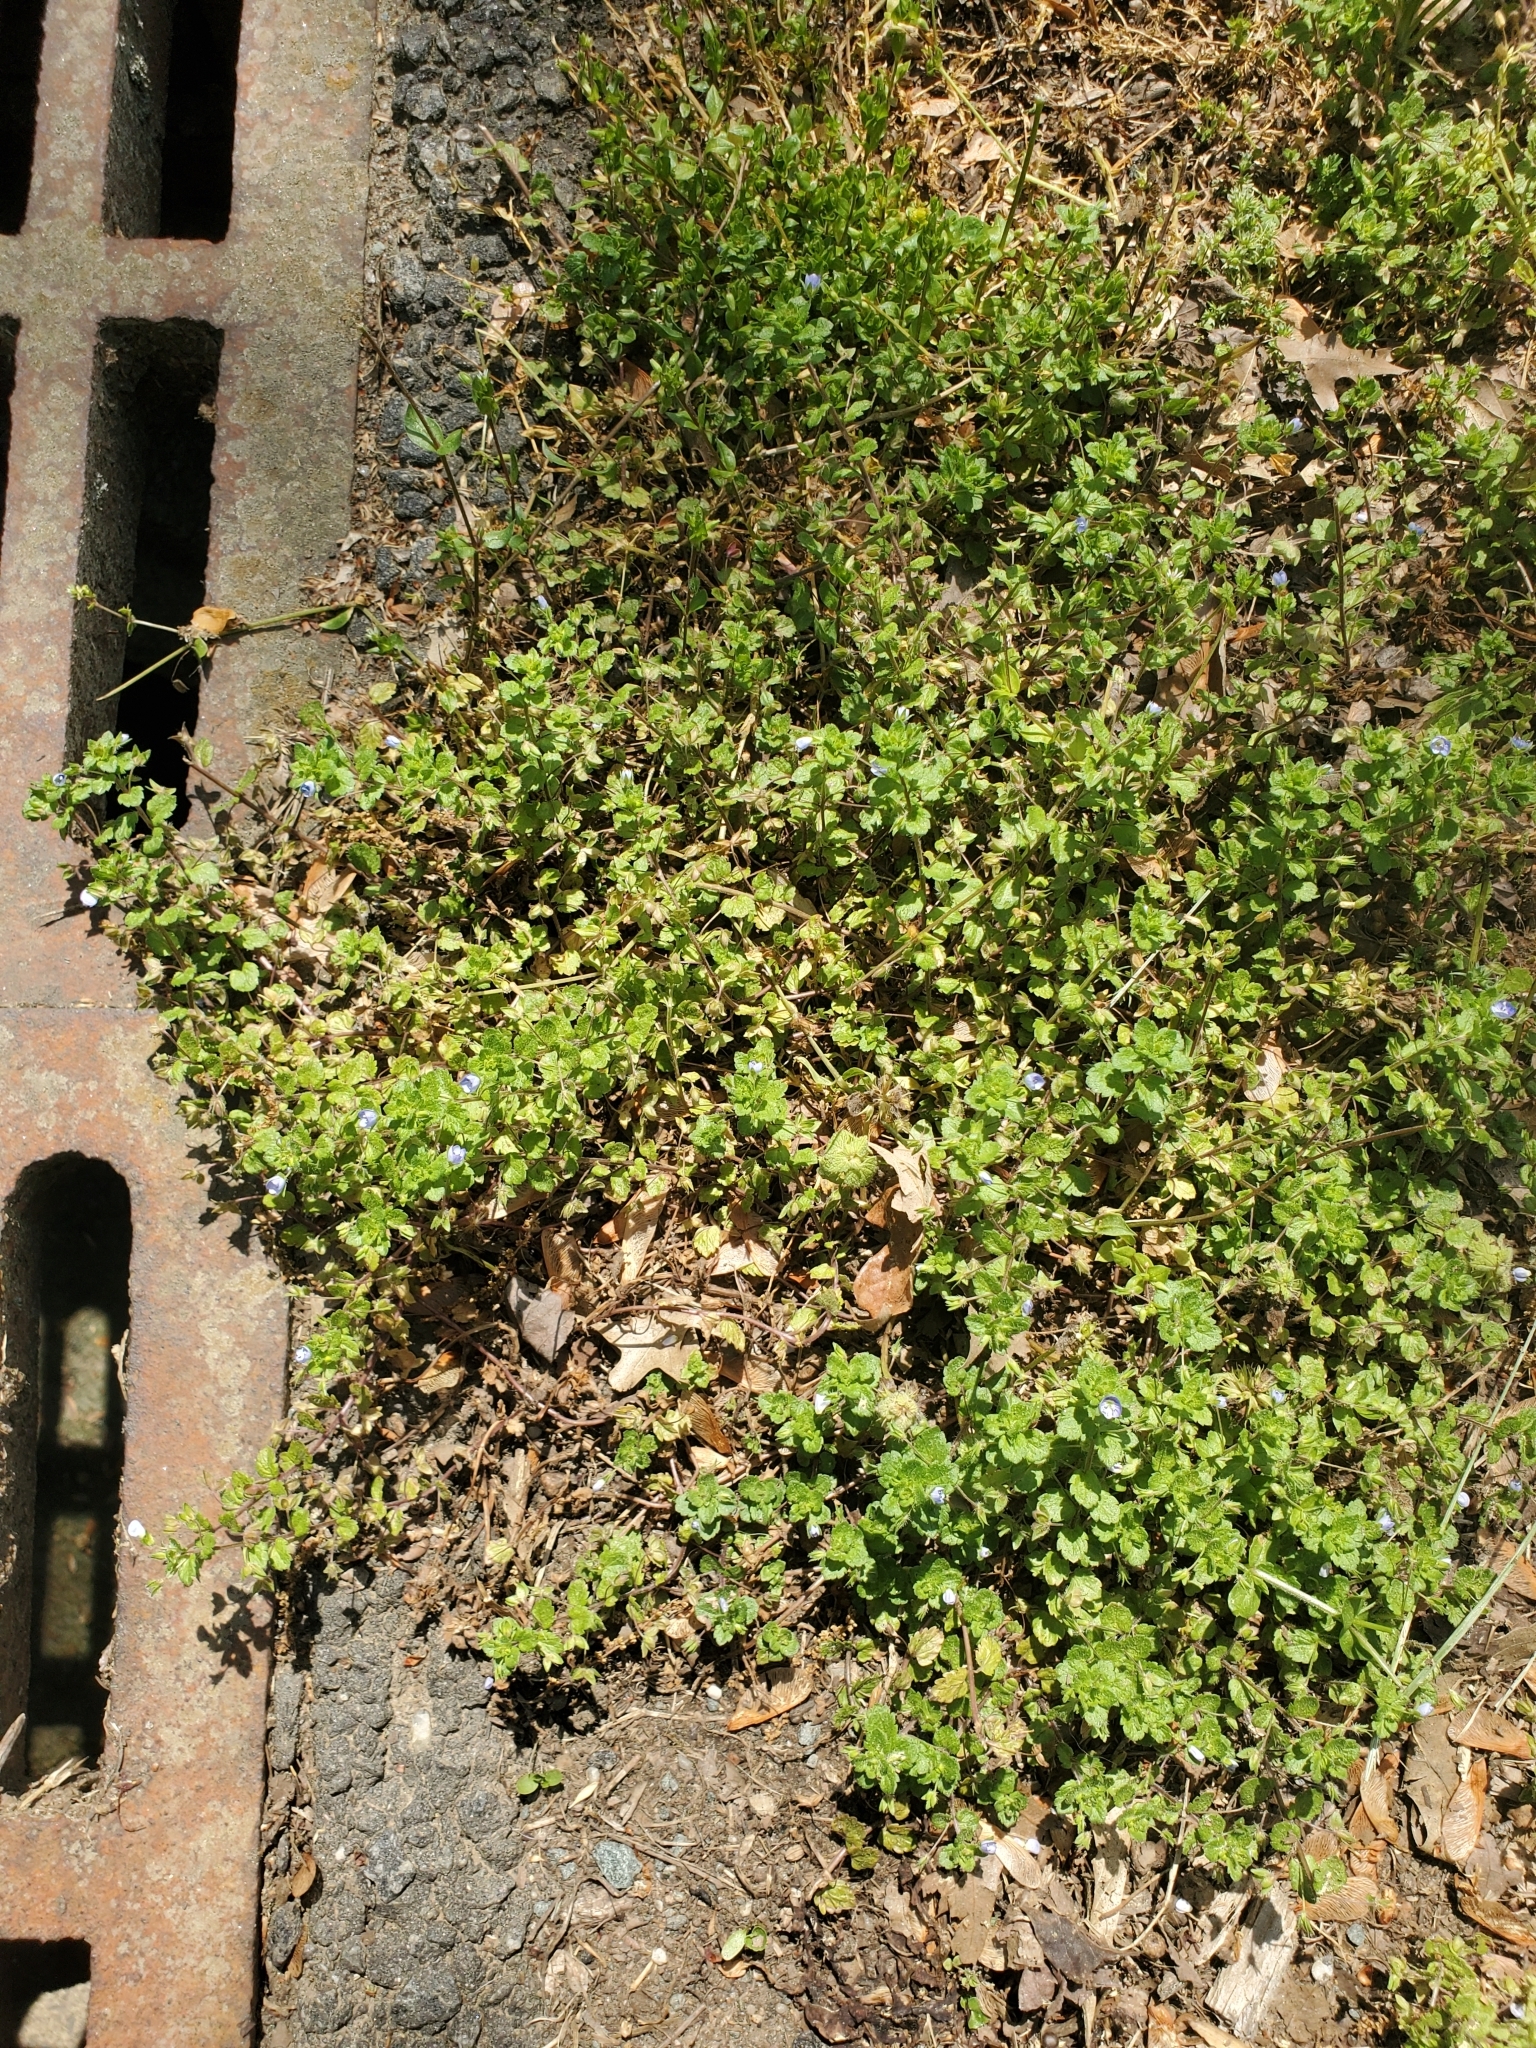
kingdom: Plantae
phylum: Tracheophyta
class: Magnoliopsida
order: Lamiales
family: Plantaginaceae
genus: Veronica
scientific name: Veronica persica
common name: Common field-speedwell
